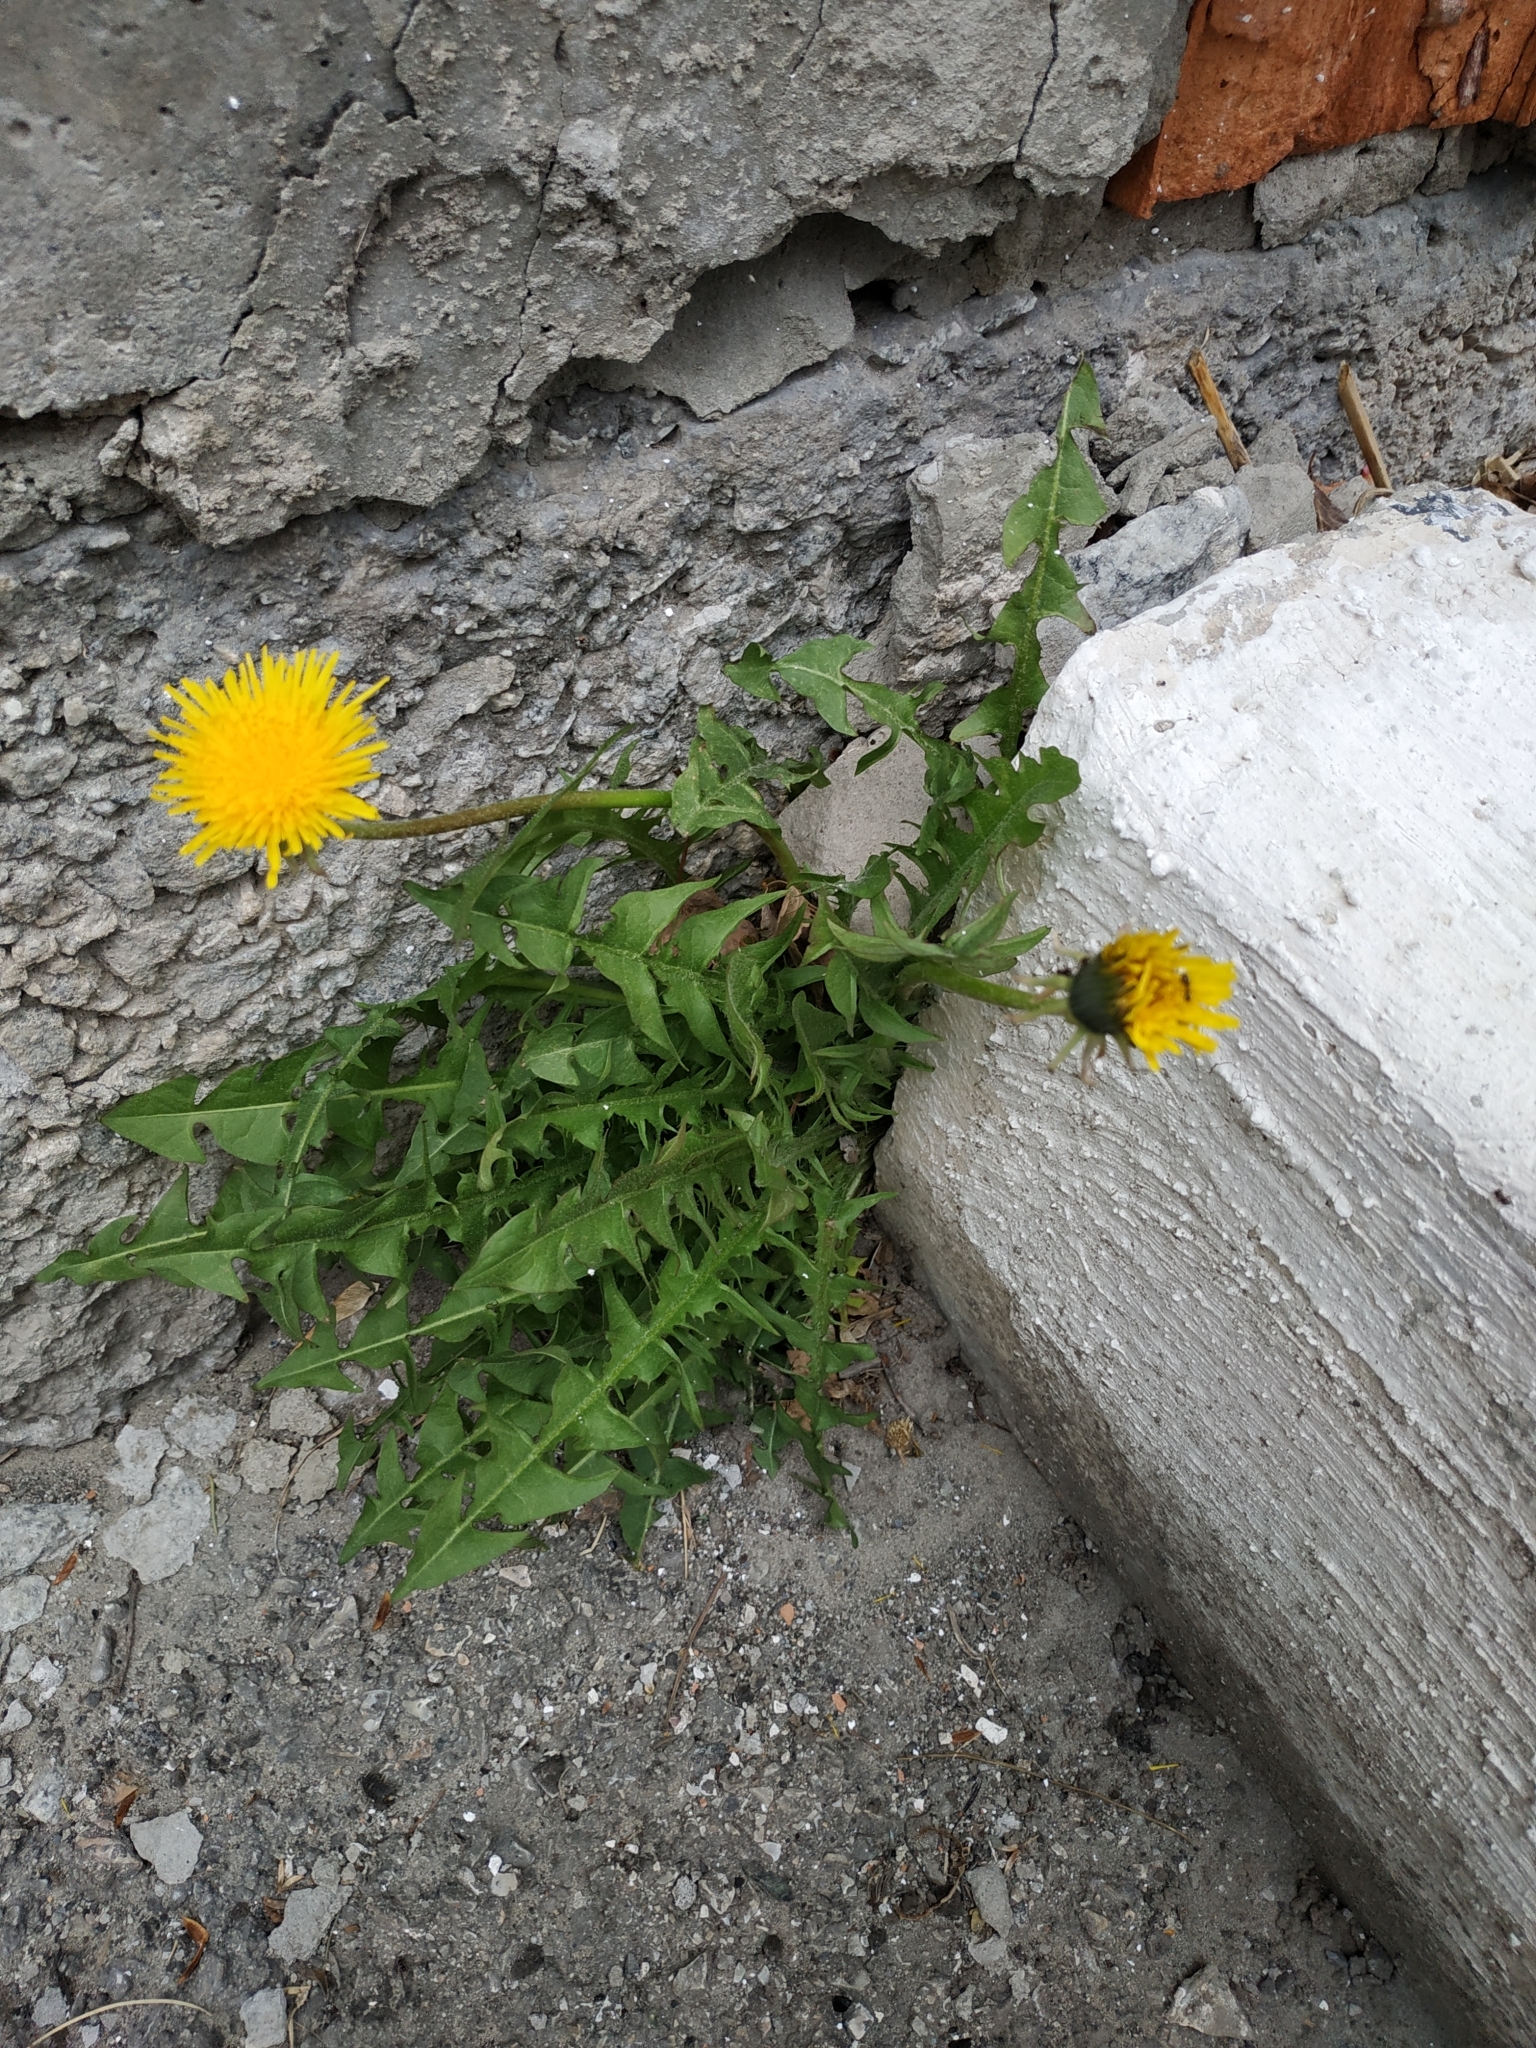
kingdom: Plantae
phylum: Tracheophyta
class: Magnoliopsida
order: Asterales
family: Asteraceae
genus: Taraxacum
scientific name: Taraxacum officinale
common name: Common dandelion
